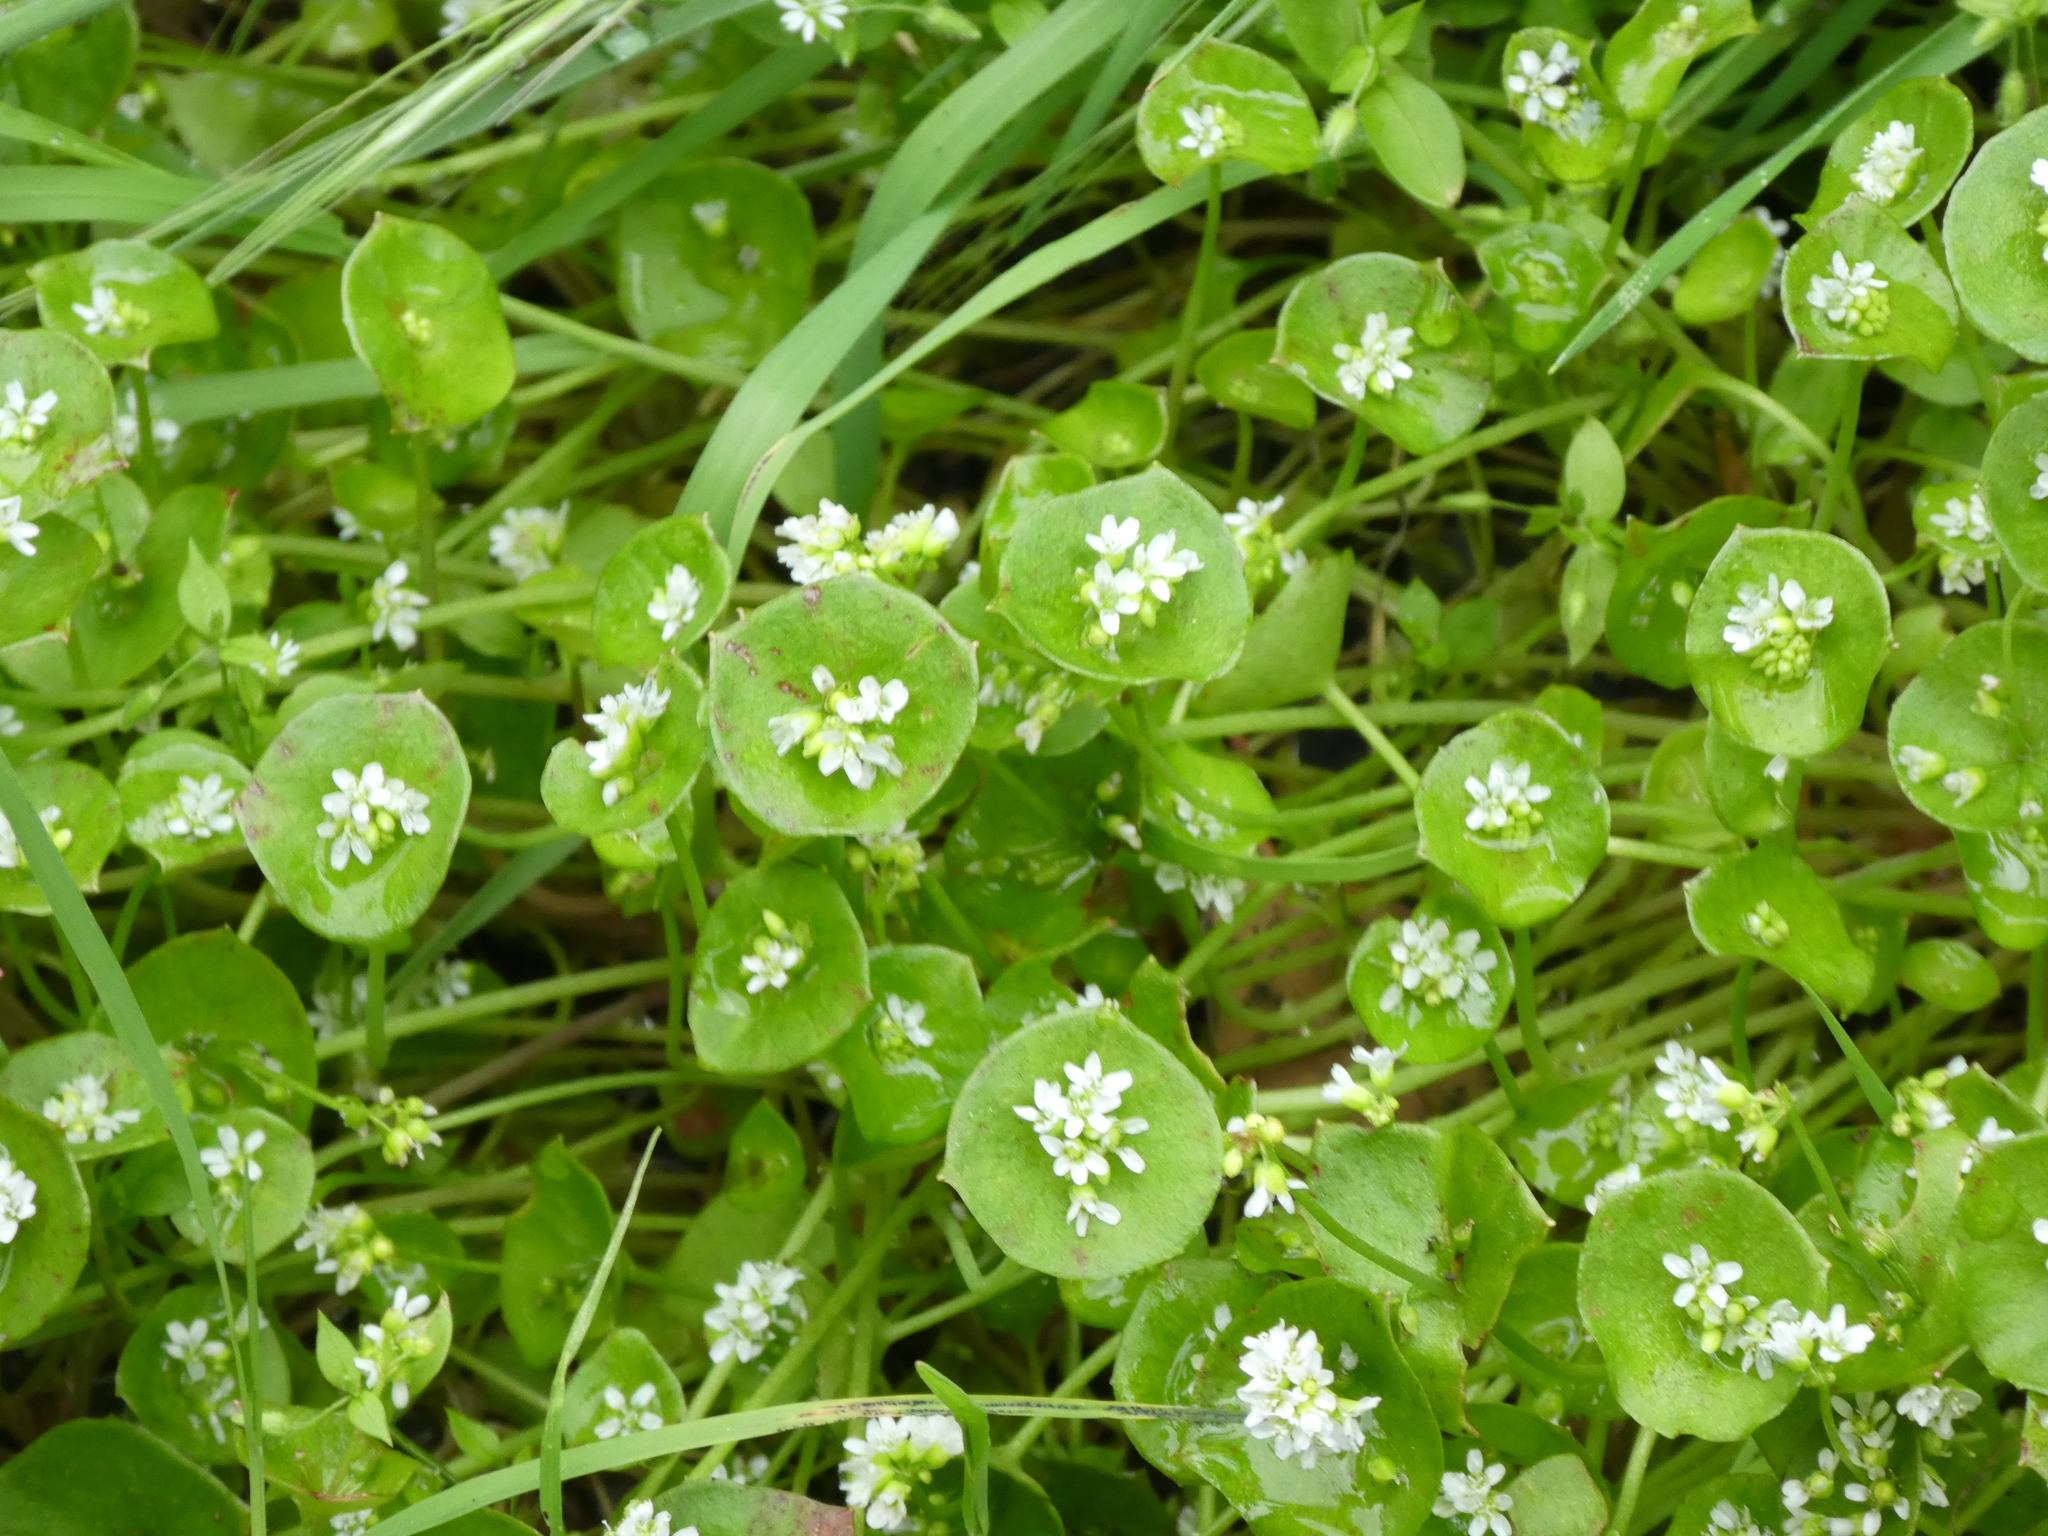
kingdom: Plantae
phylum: Tracheophyta
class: Magnoliopsida
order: Caryophyllales
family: Montiaceae
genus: Claytonia
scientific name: Claytonia perfoliata
